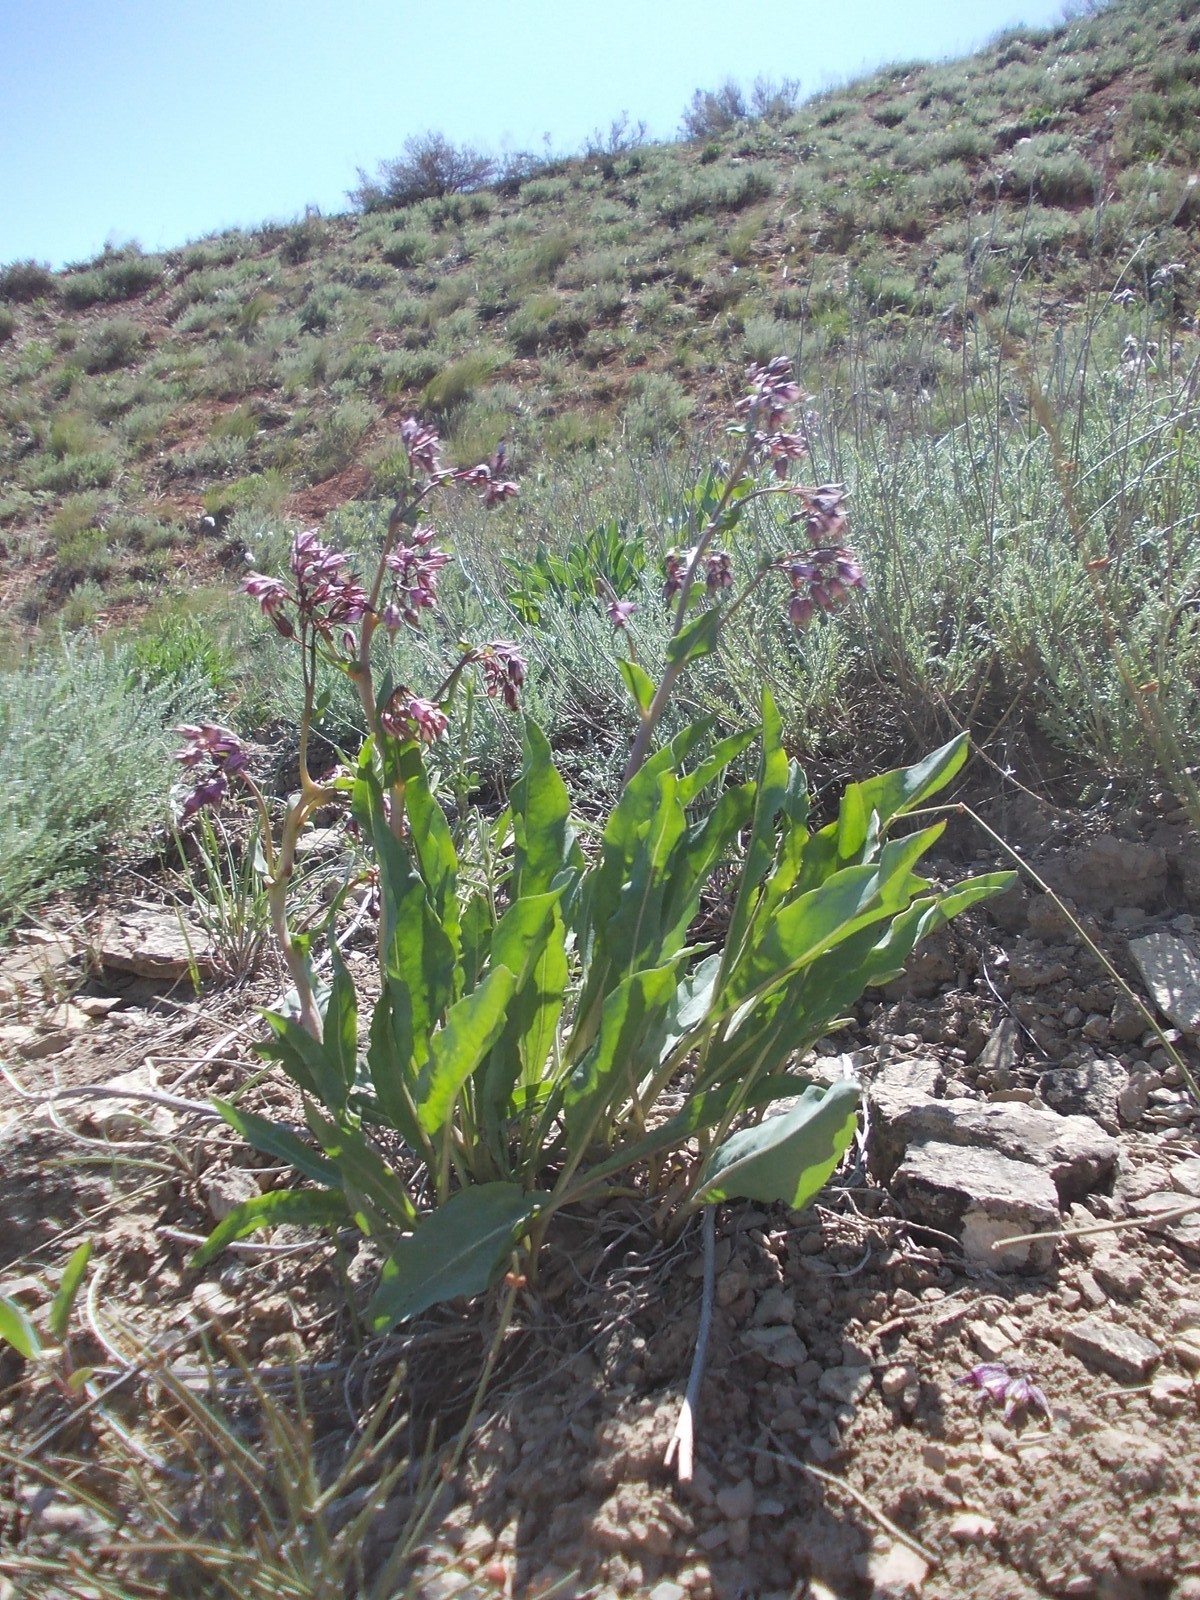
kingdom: Plantae
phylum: Tracheophyta
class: Magnoliopsida
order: Boraginales
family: Boraginaceae
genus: Rindera
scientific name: Rindera tetraspis
